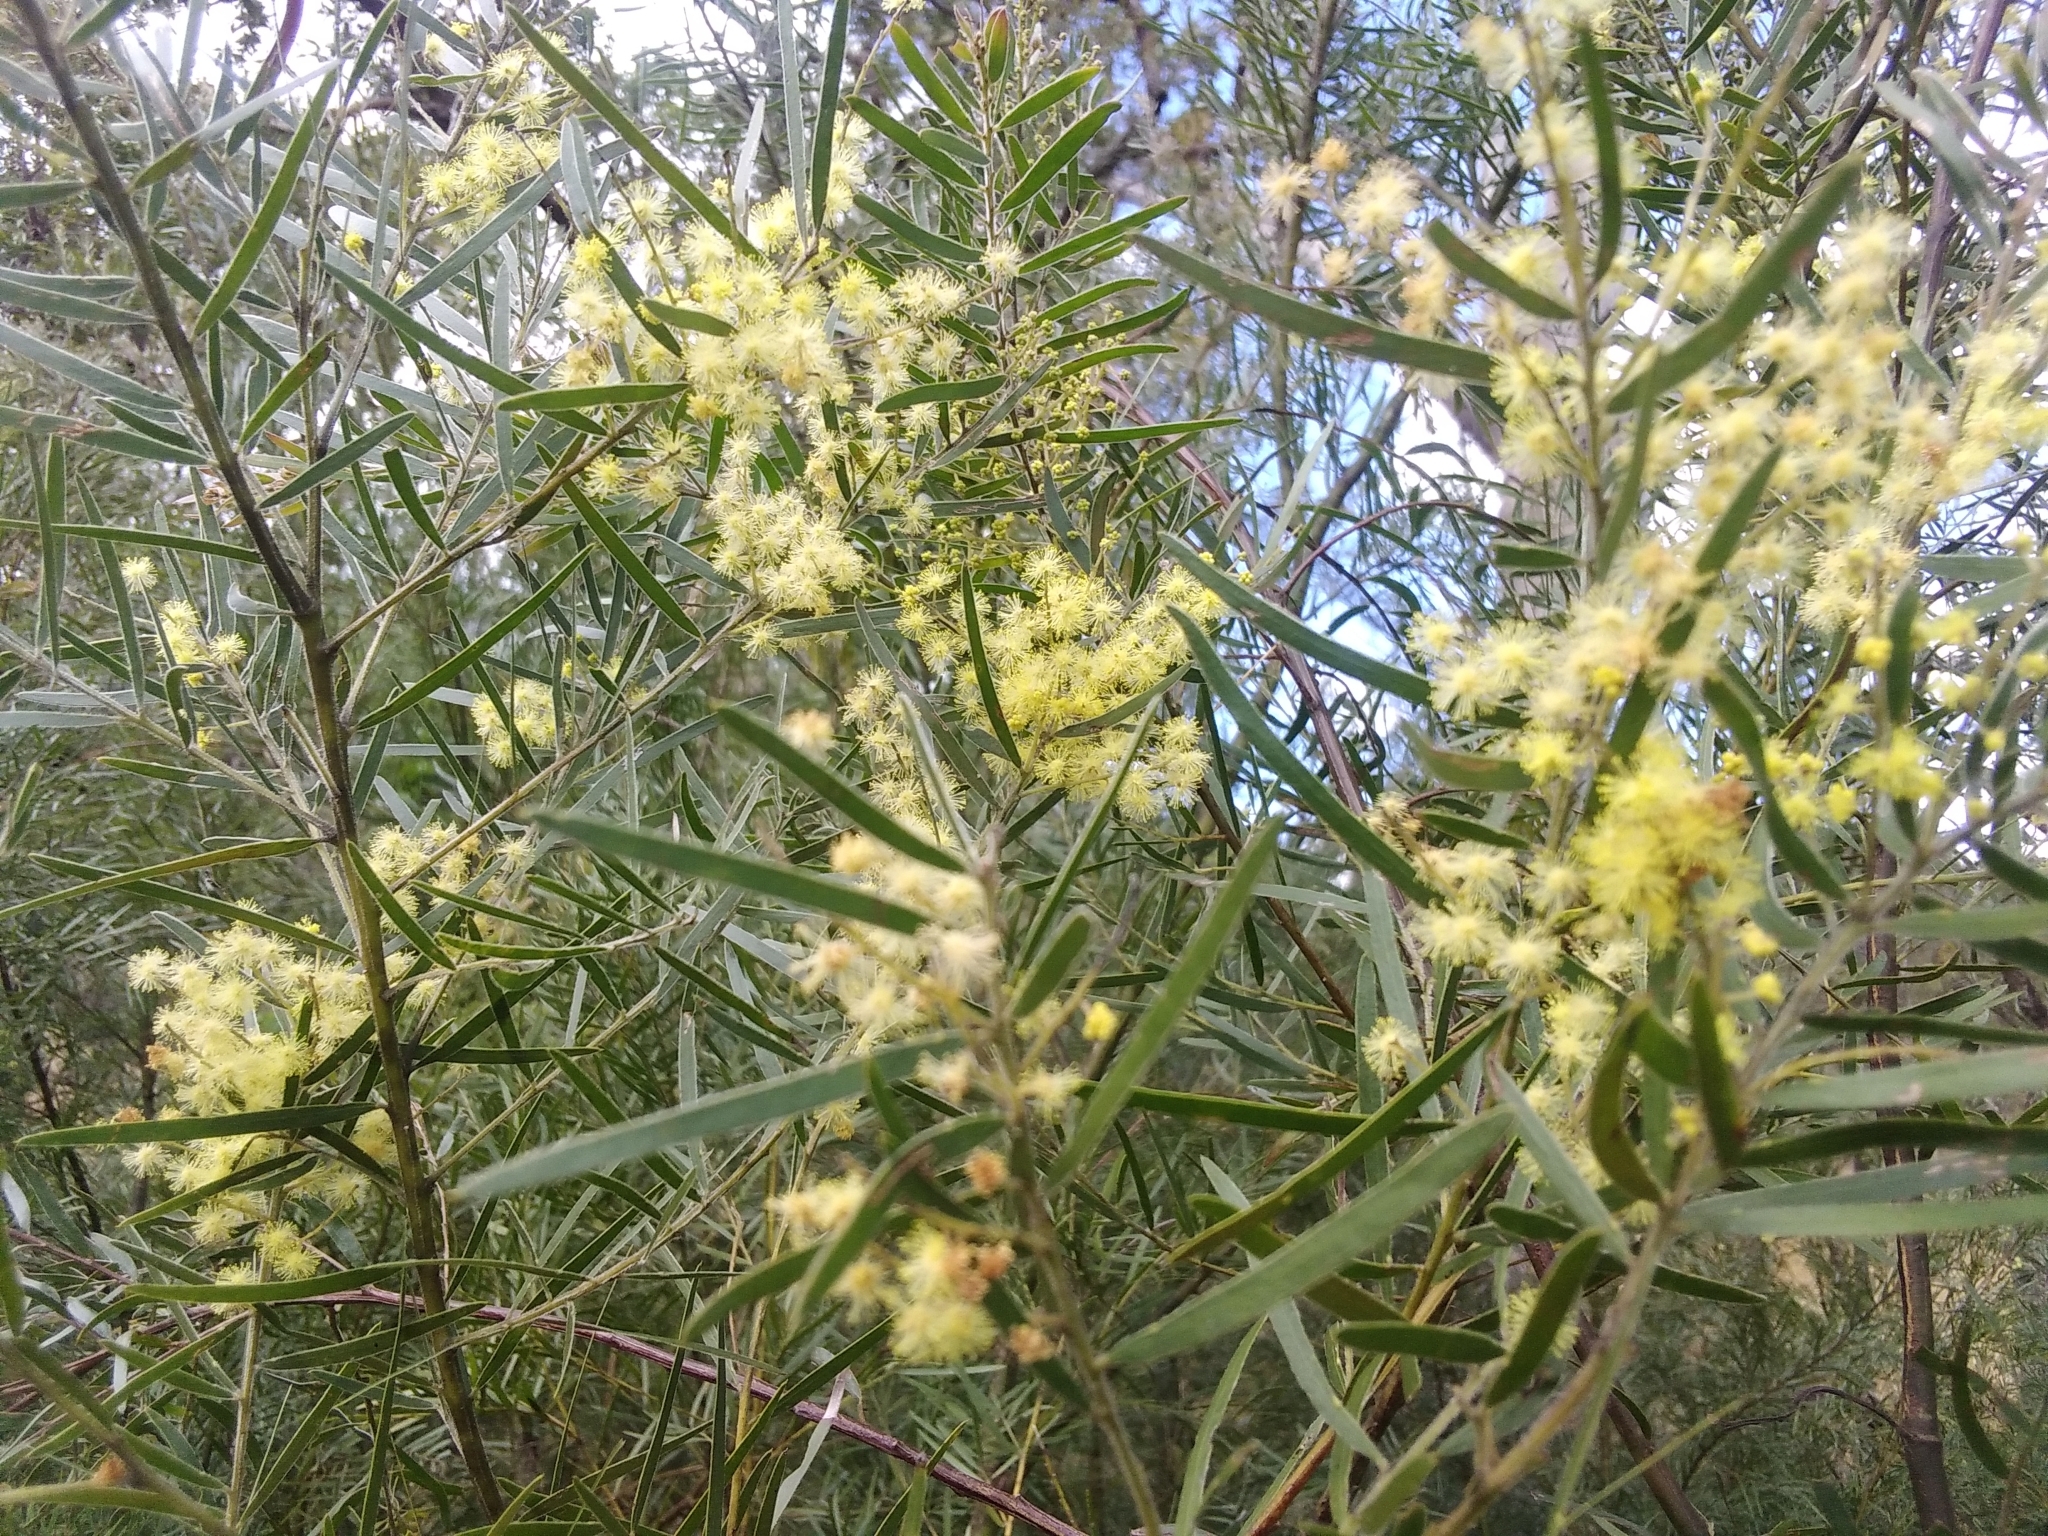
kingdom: Plantae
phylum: Tracheophyta
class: Magnoliopsida
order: Fabales
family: Fabaceae
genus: Acacia
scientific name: Acacia fimbriata
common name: Brisbane golden wattle
